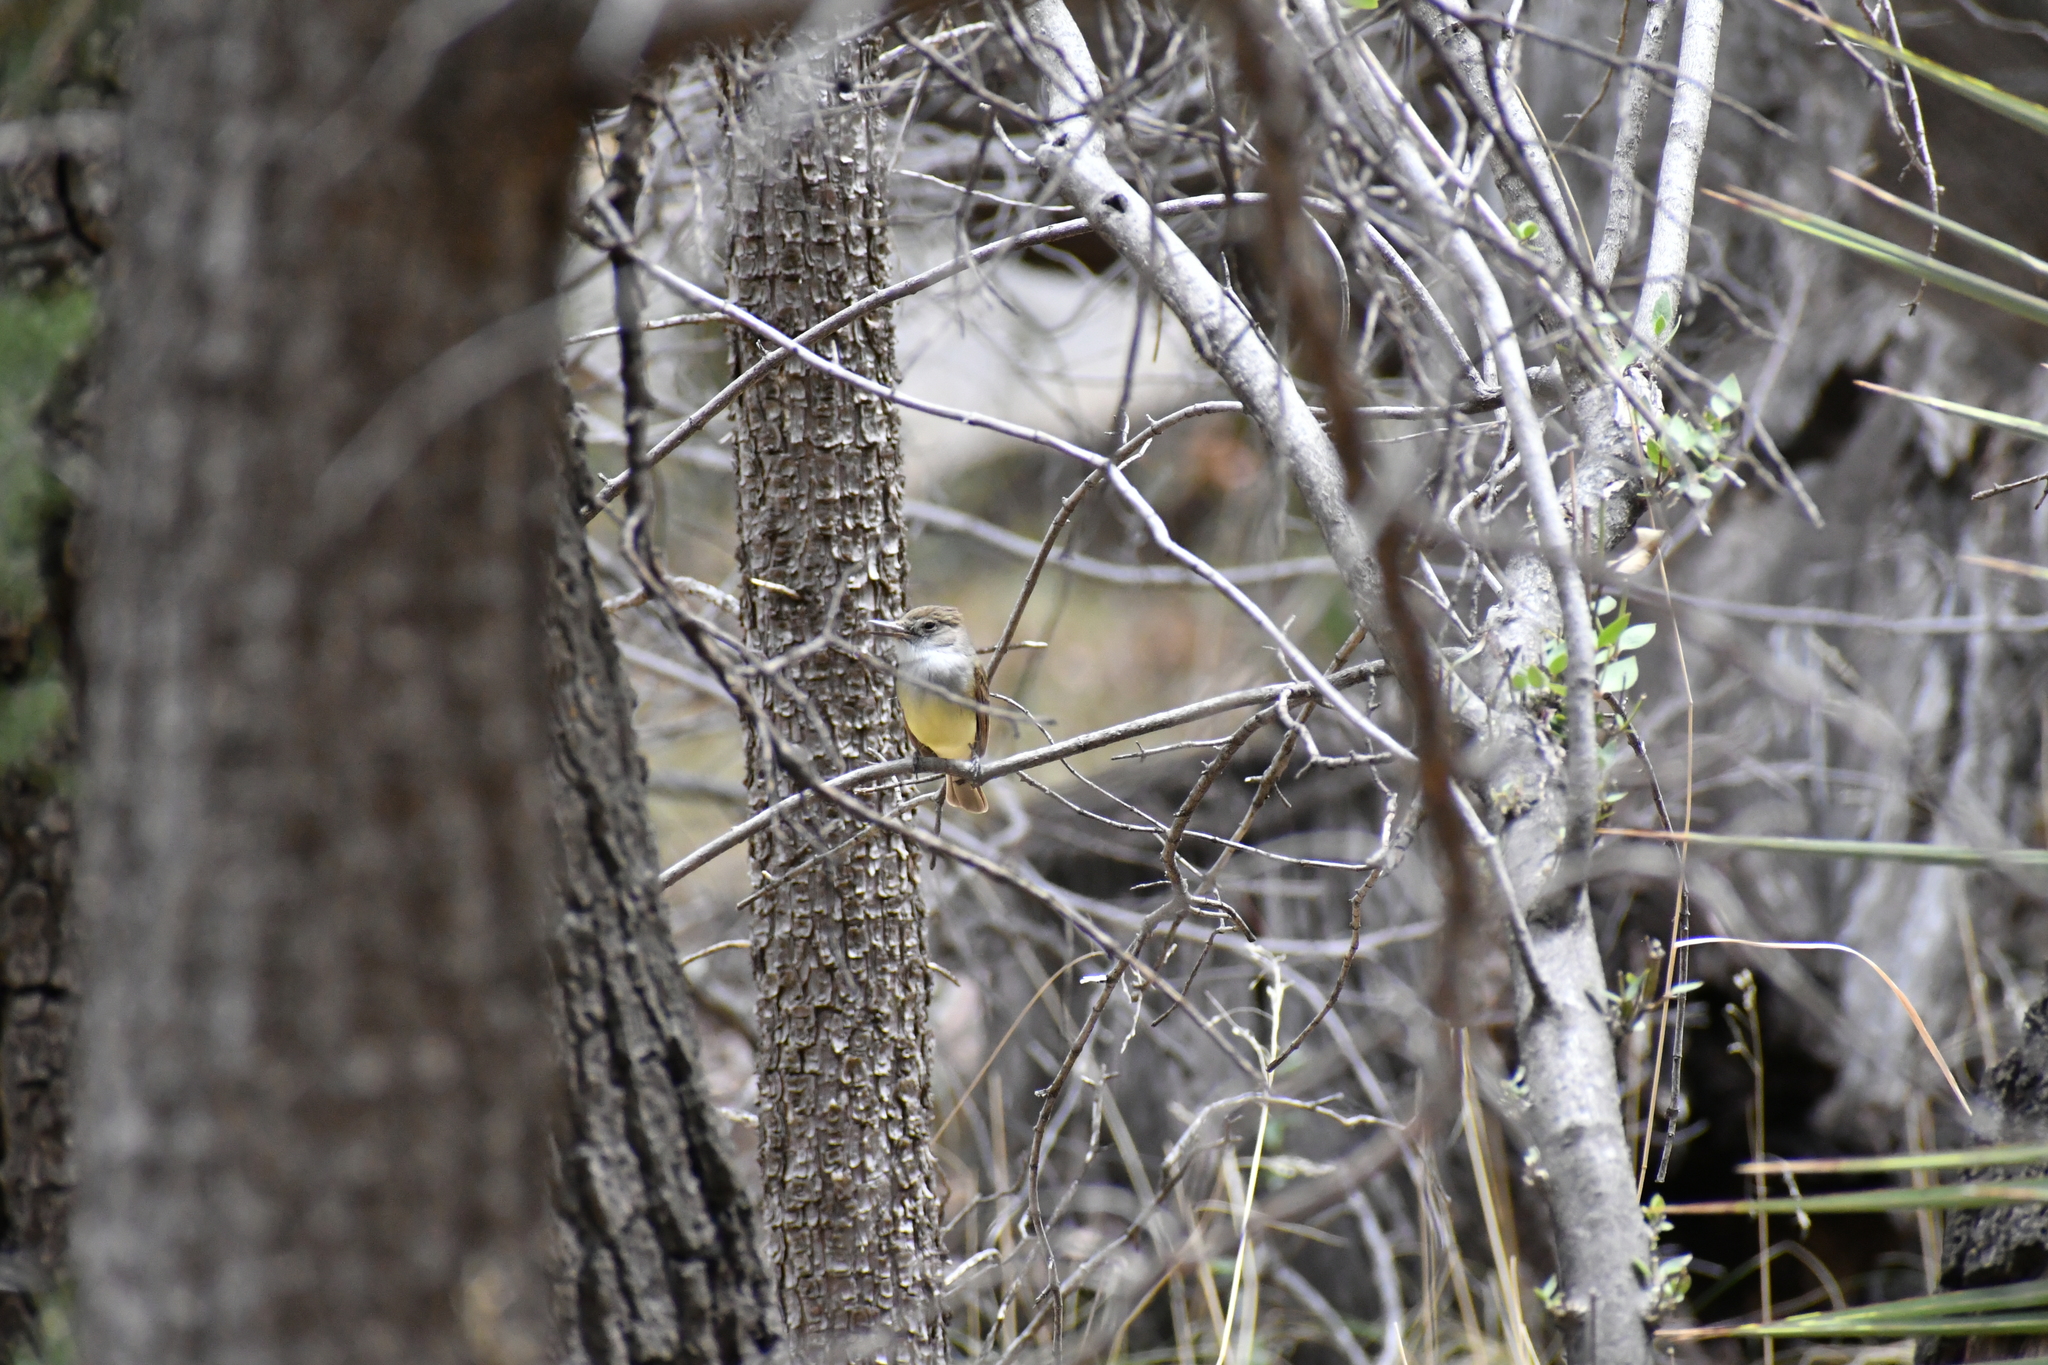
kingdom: Animalia
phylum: Chordata
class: Aves
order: Passeriformes
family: Tyrannidae
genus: Myiarchus
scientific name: Myiarchus tuberculifer
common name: Dusky-capped flycatcher
